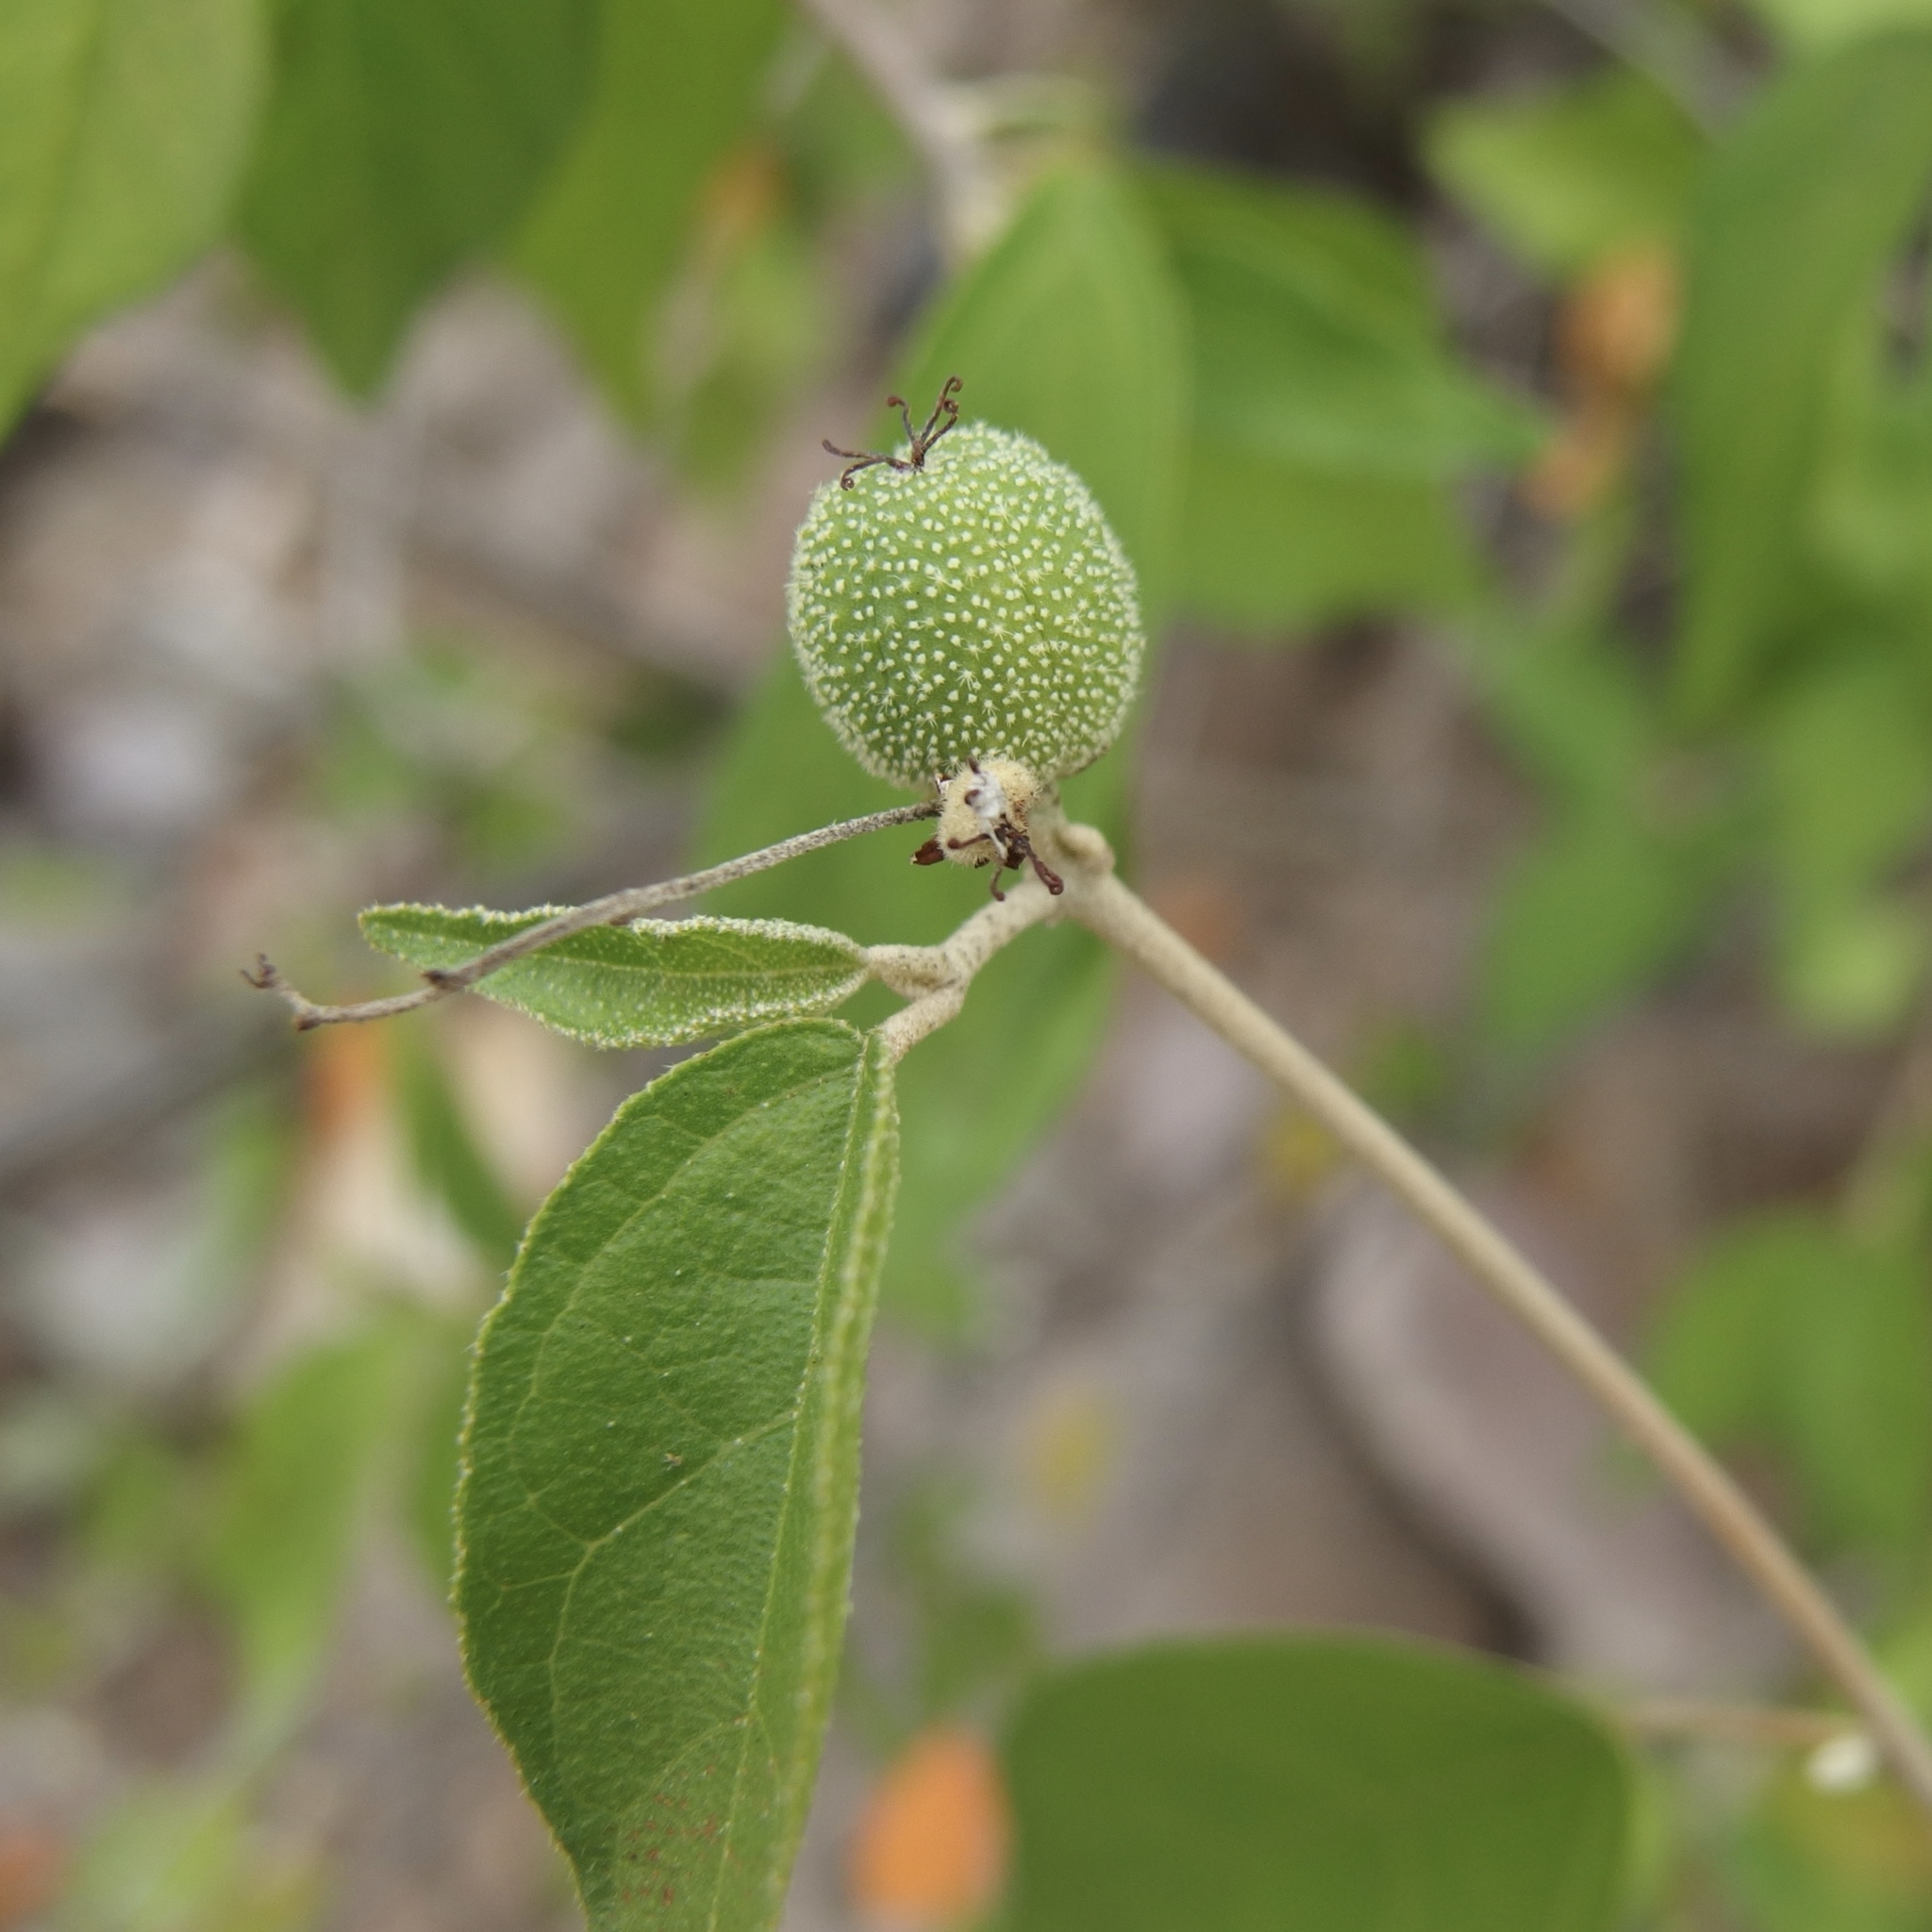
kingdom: Plantae
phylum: Tracheophyta
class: Magnoliopsida
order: Malpighiales
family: Euphorbiaceae
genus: Croton
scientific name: Croton sonorae
